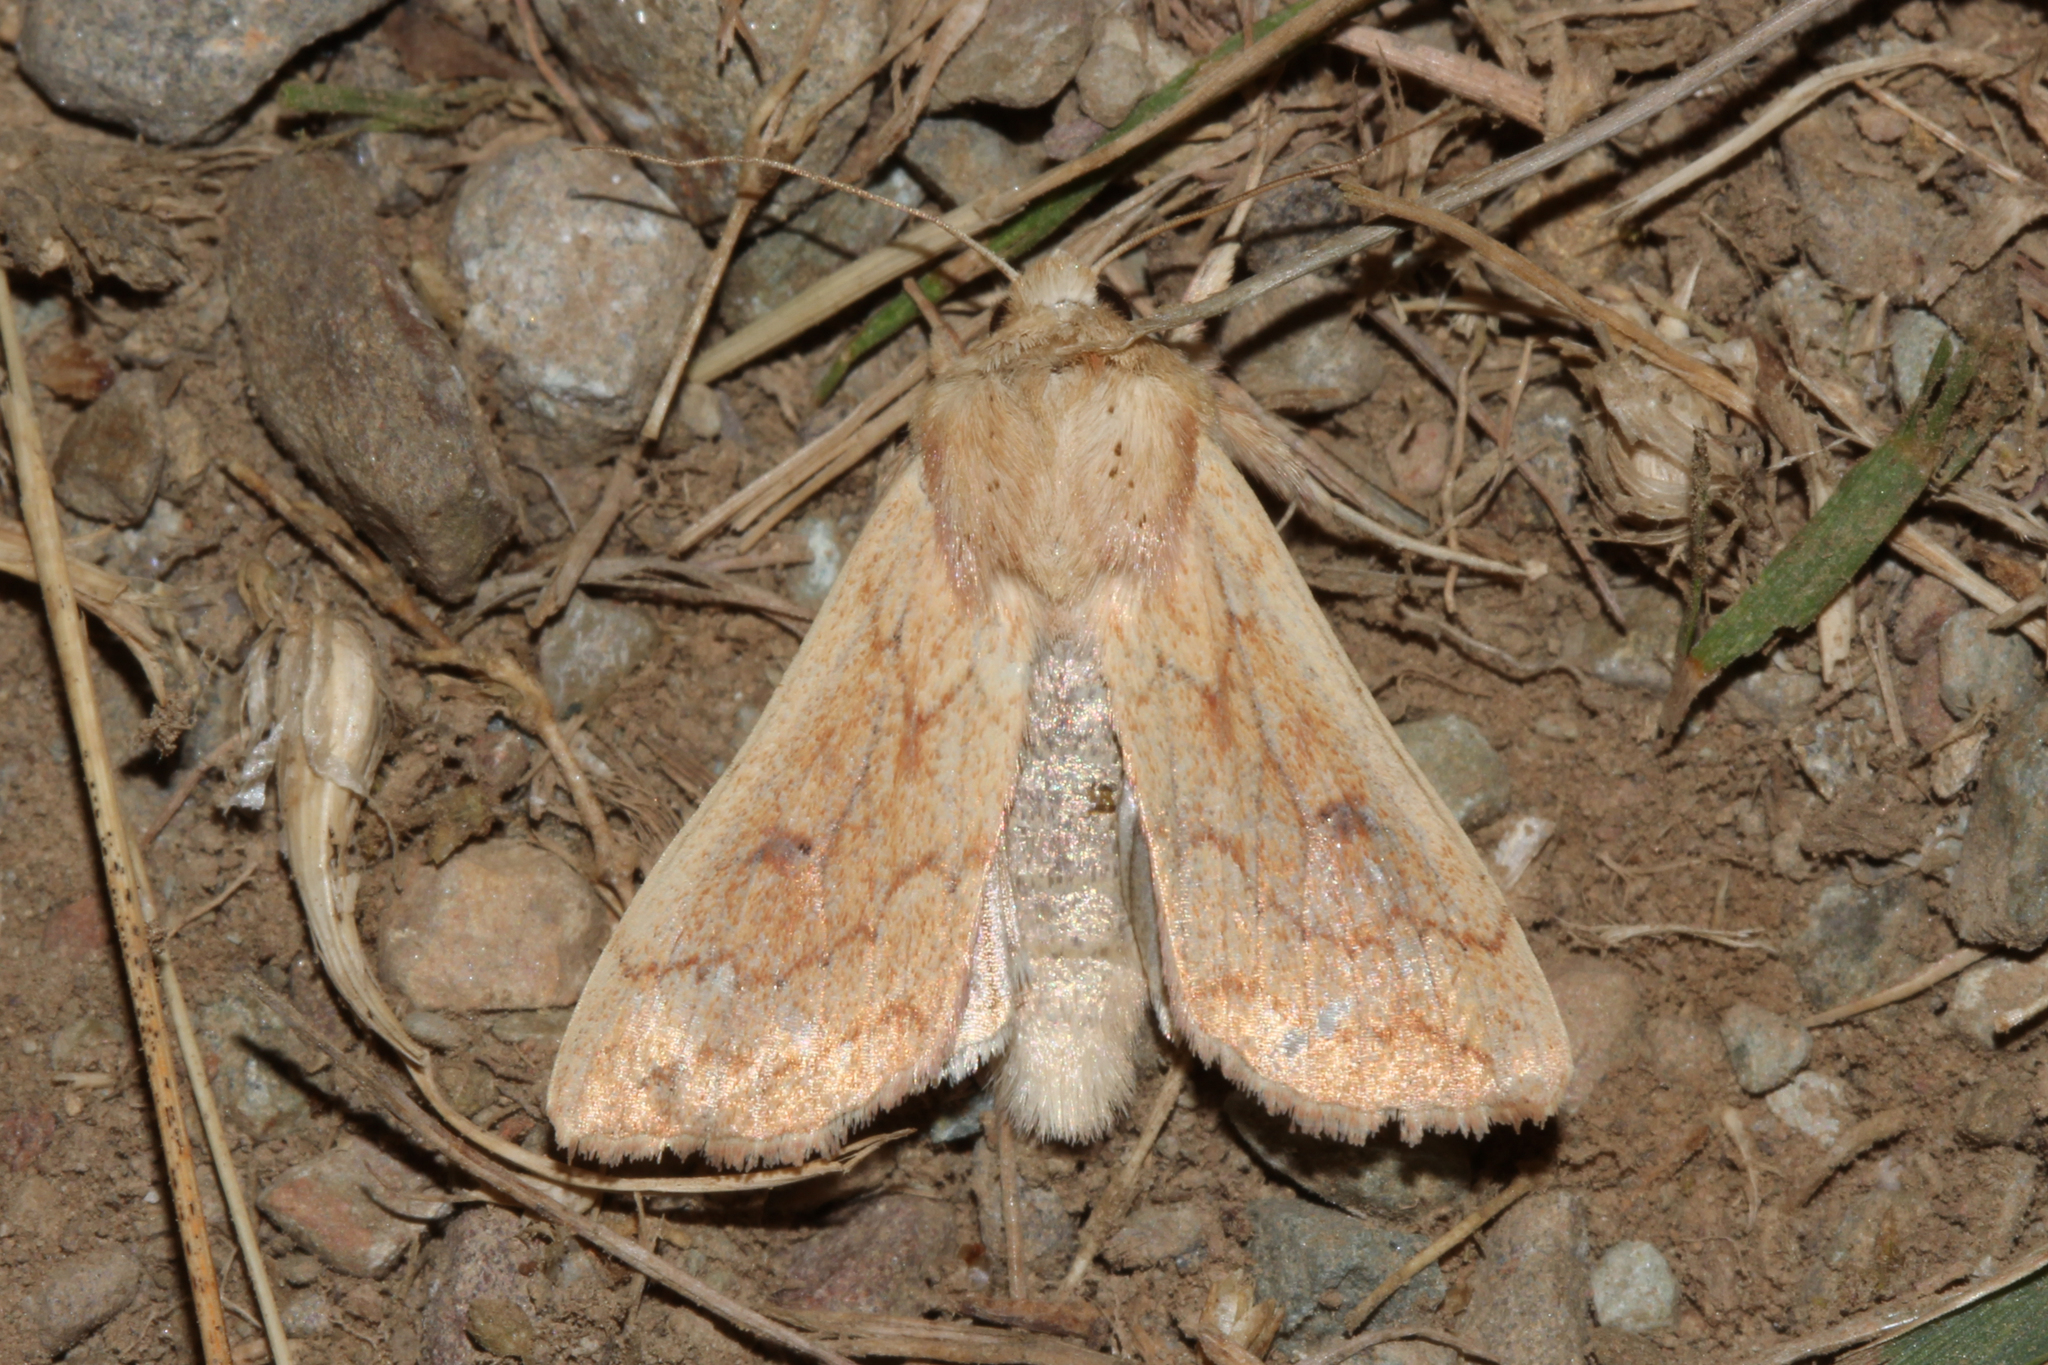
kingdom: Animalia
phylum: Arthropoda
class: Insecta
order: Lepidoptera
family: Noctuidae
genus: Mythimna
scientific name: Mythimna vitellina
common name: Delicate
